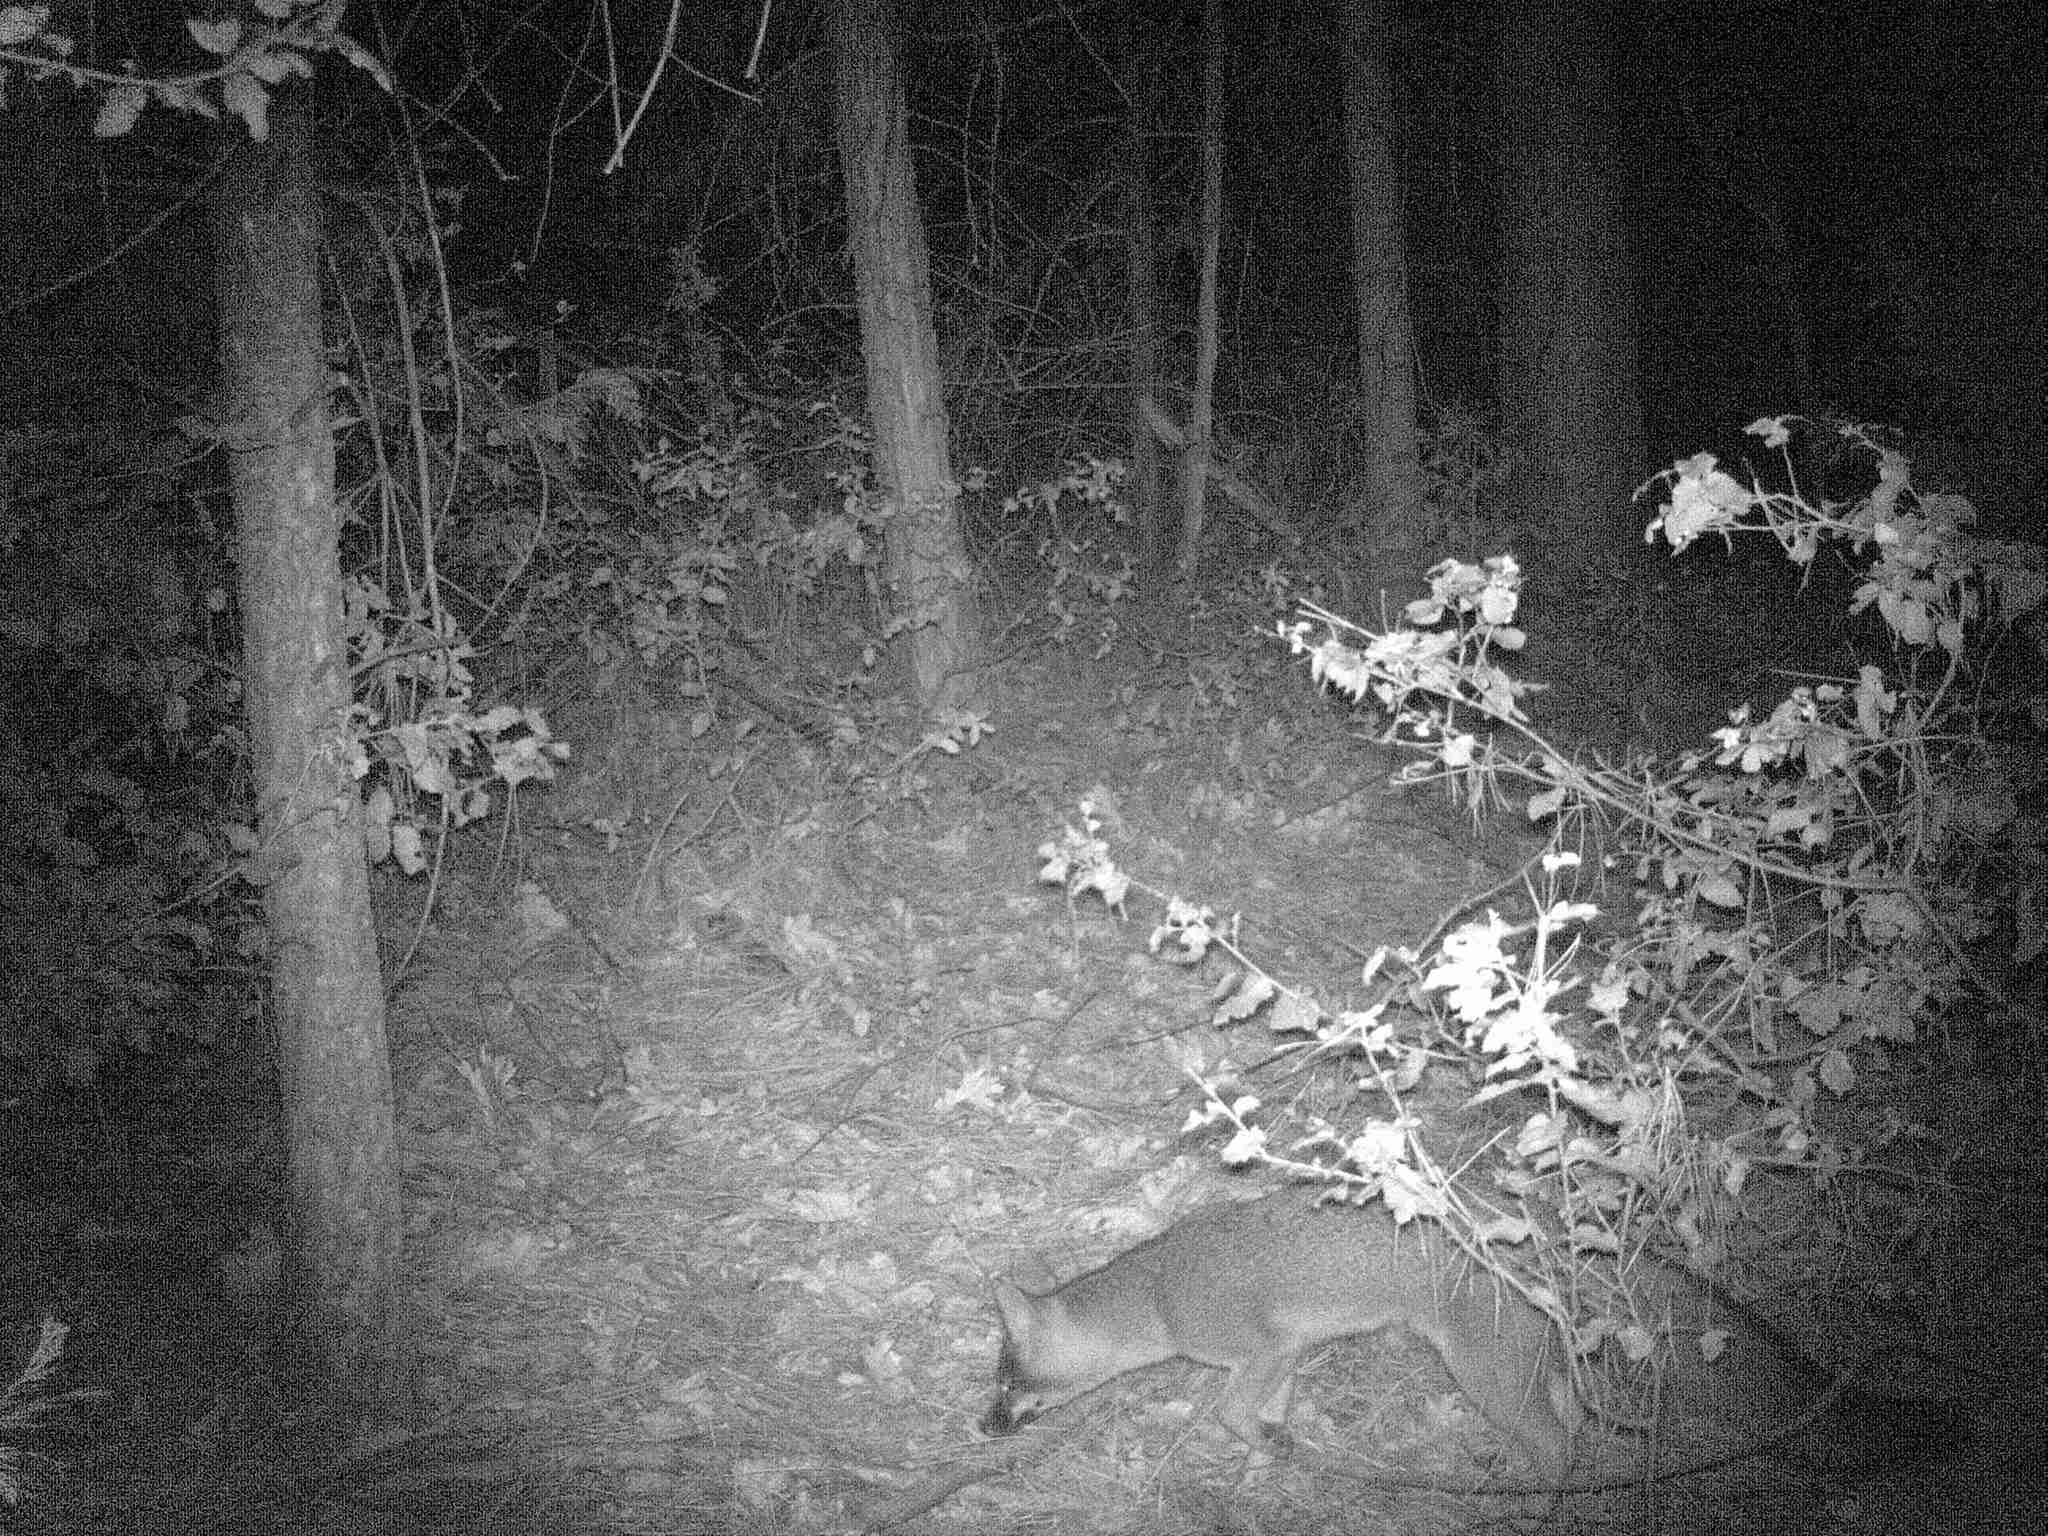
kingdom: Animalia
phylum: Chordata
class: Mammalia
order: Carnivora
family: Canidae
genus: Urocyon
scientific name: Urocyon cinereoargenteus
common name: Gray fox
